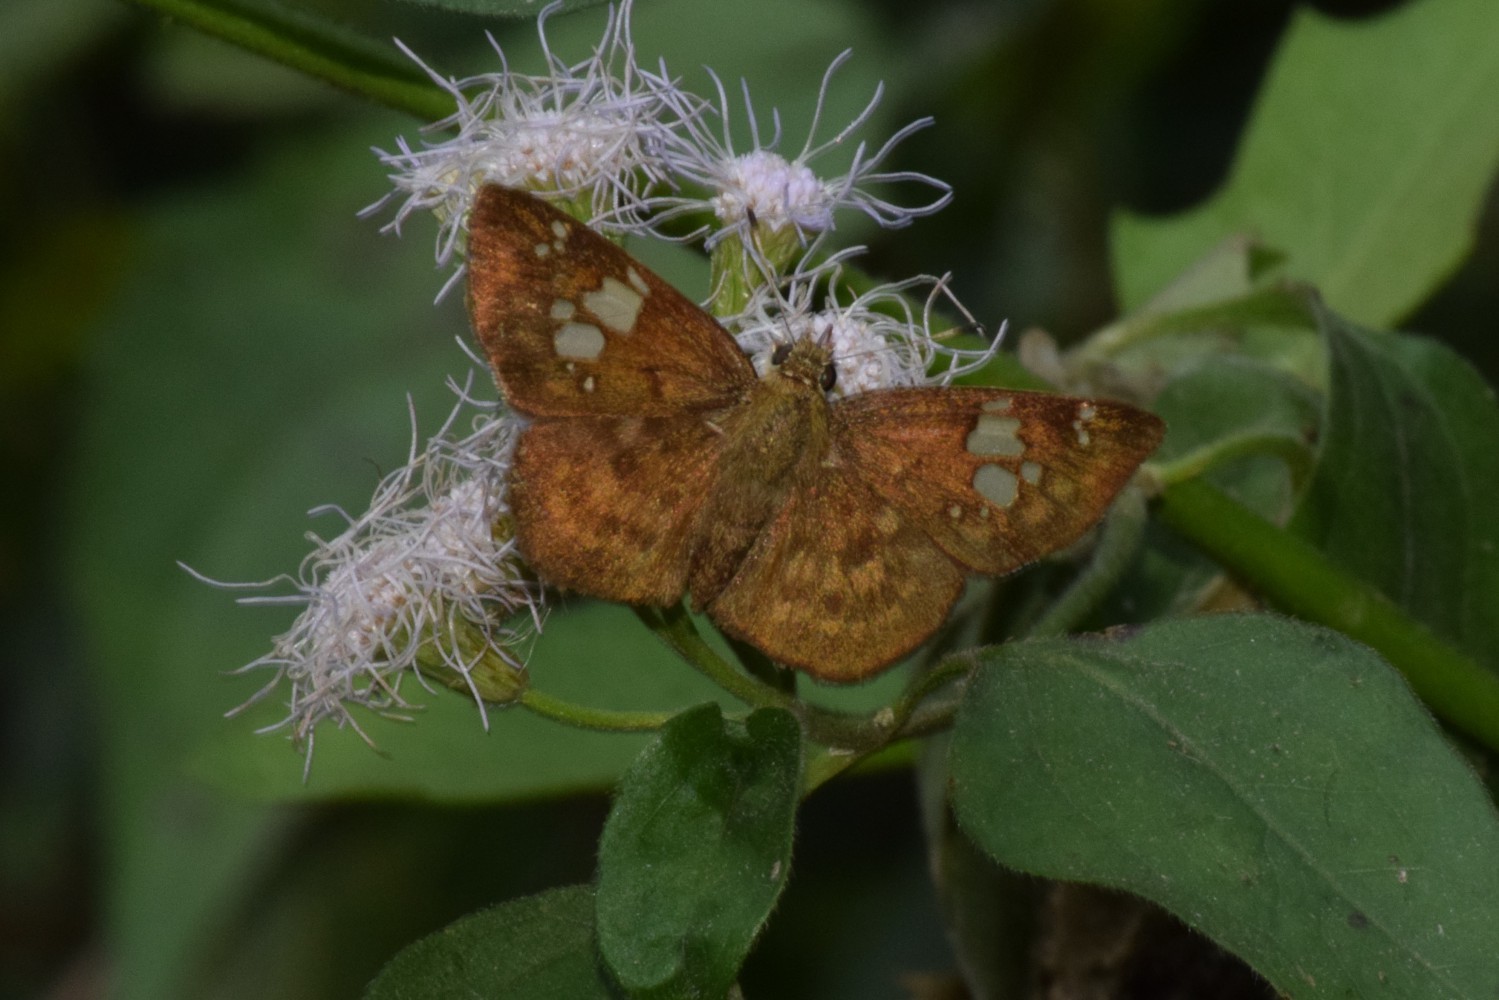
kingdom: Animalia
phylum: Arthropoda
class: Insecta
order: Lepidoptera
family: Hesperiidae
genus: Pseudocoladenia
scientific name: Pseudocoladenia dan
